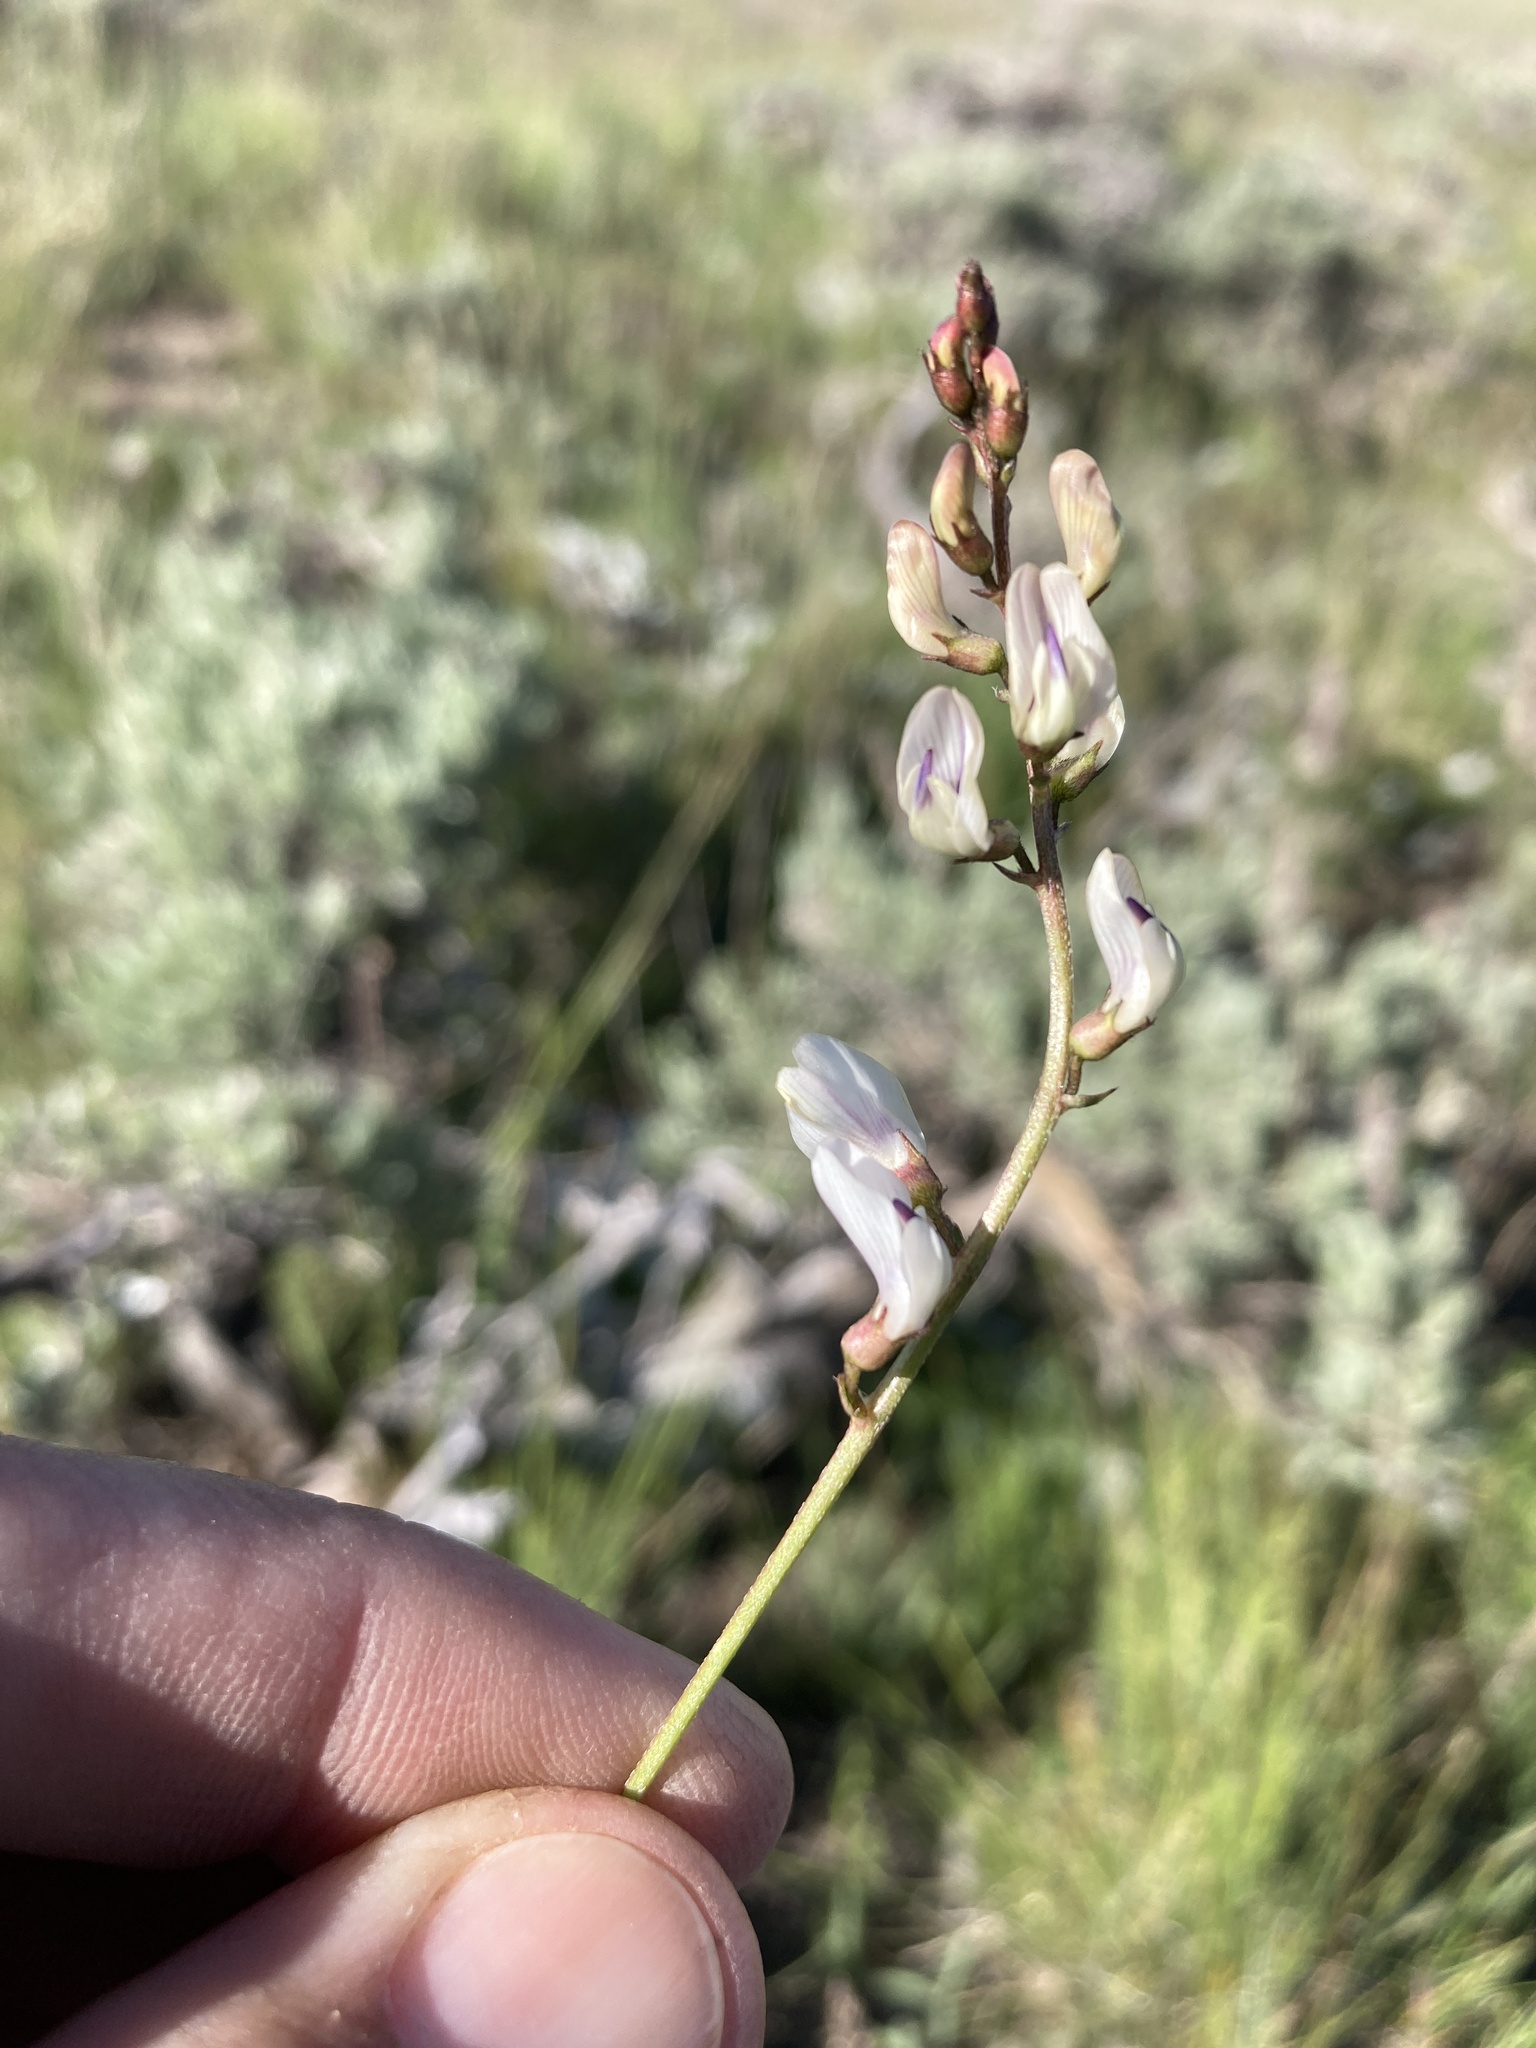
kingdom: Plantae
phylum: Tracheophyta
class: Magnoliopsida
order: Fabales
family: Fabaceae
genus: Astragalus
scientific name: Astragalus miser
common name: Timber milkvetch
